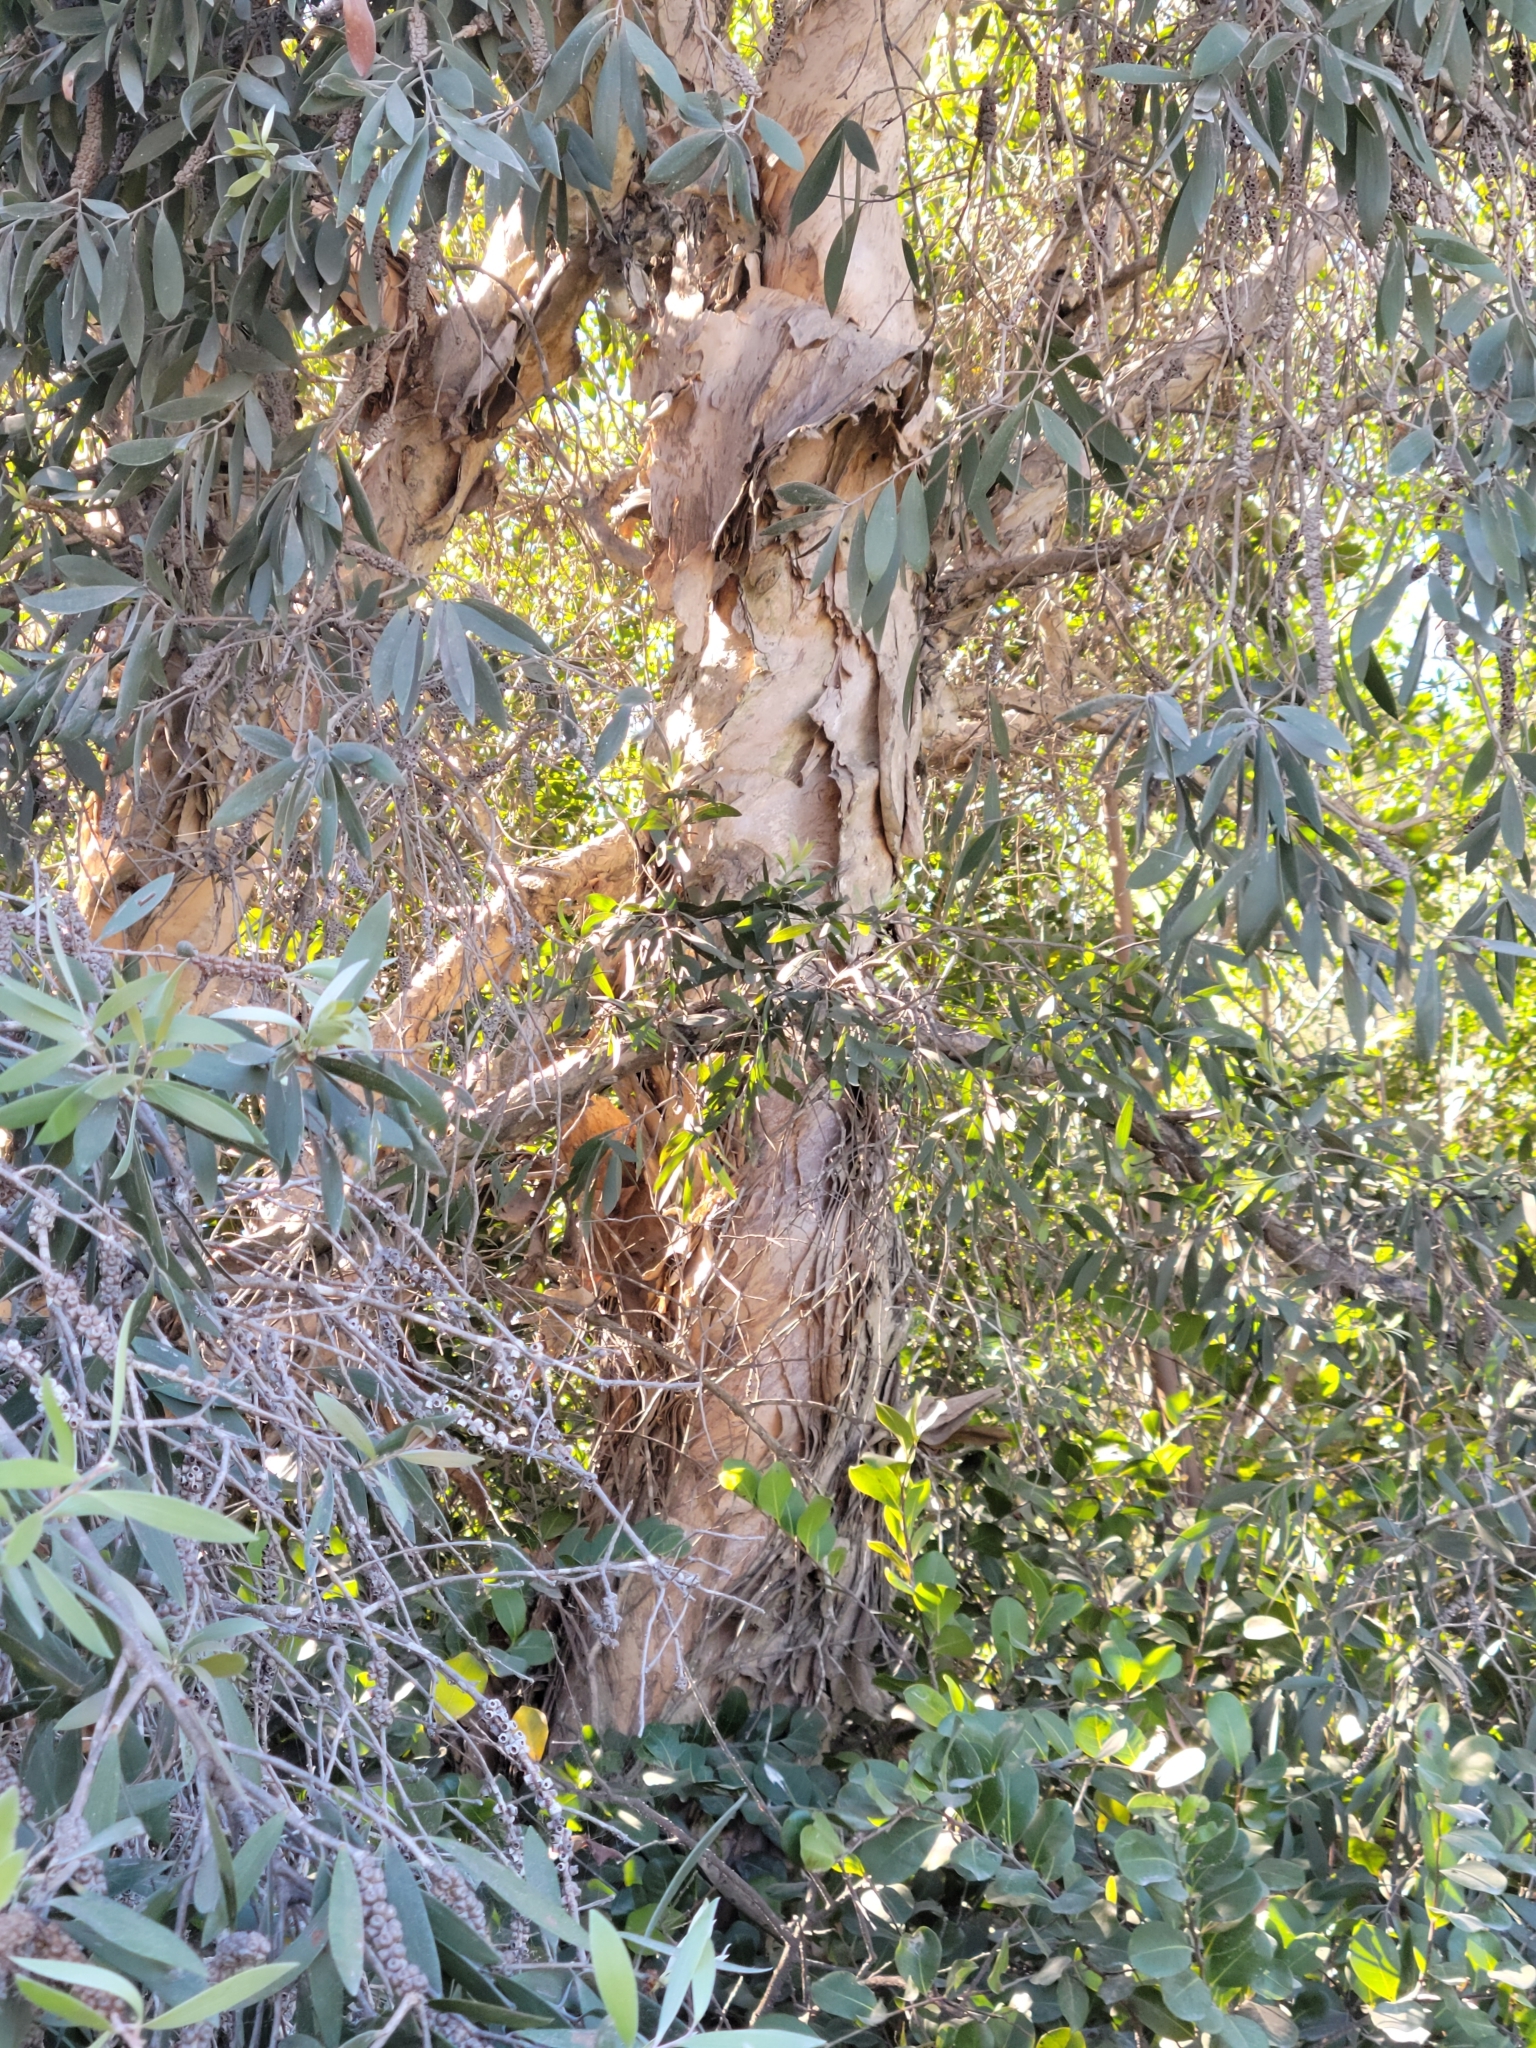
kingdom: Plantae
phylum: Tracheophyta
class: Magnoliopsida
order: Myrtales
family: Myrtaceae
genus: Melaleuca
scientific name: Melaleuca quinquenervia
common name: Punktree
